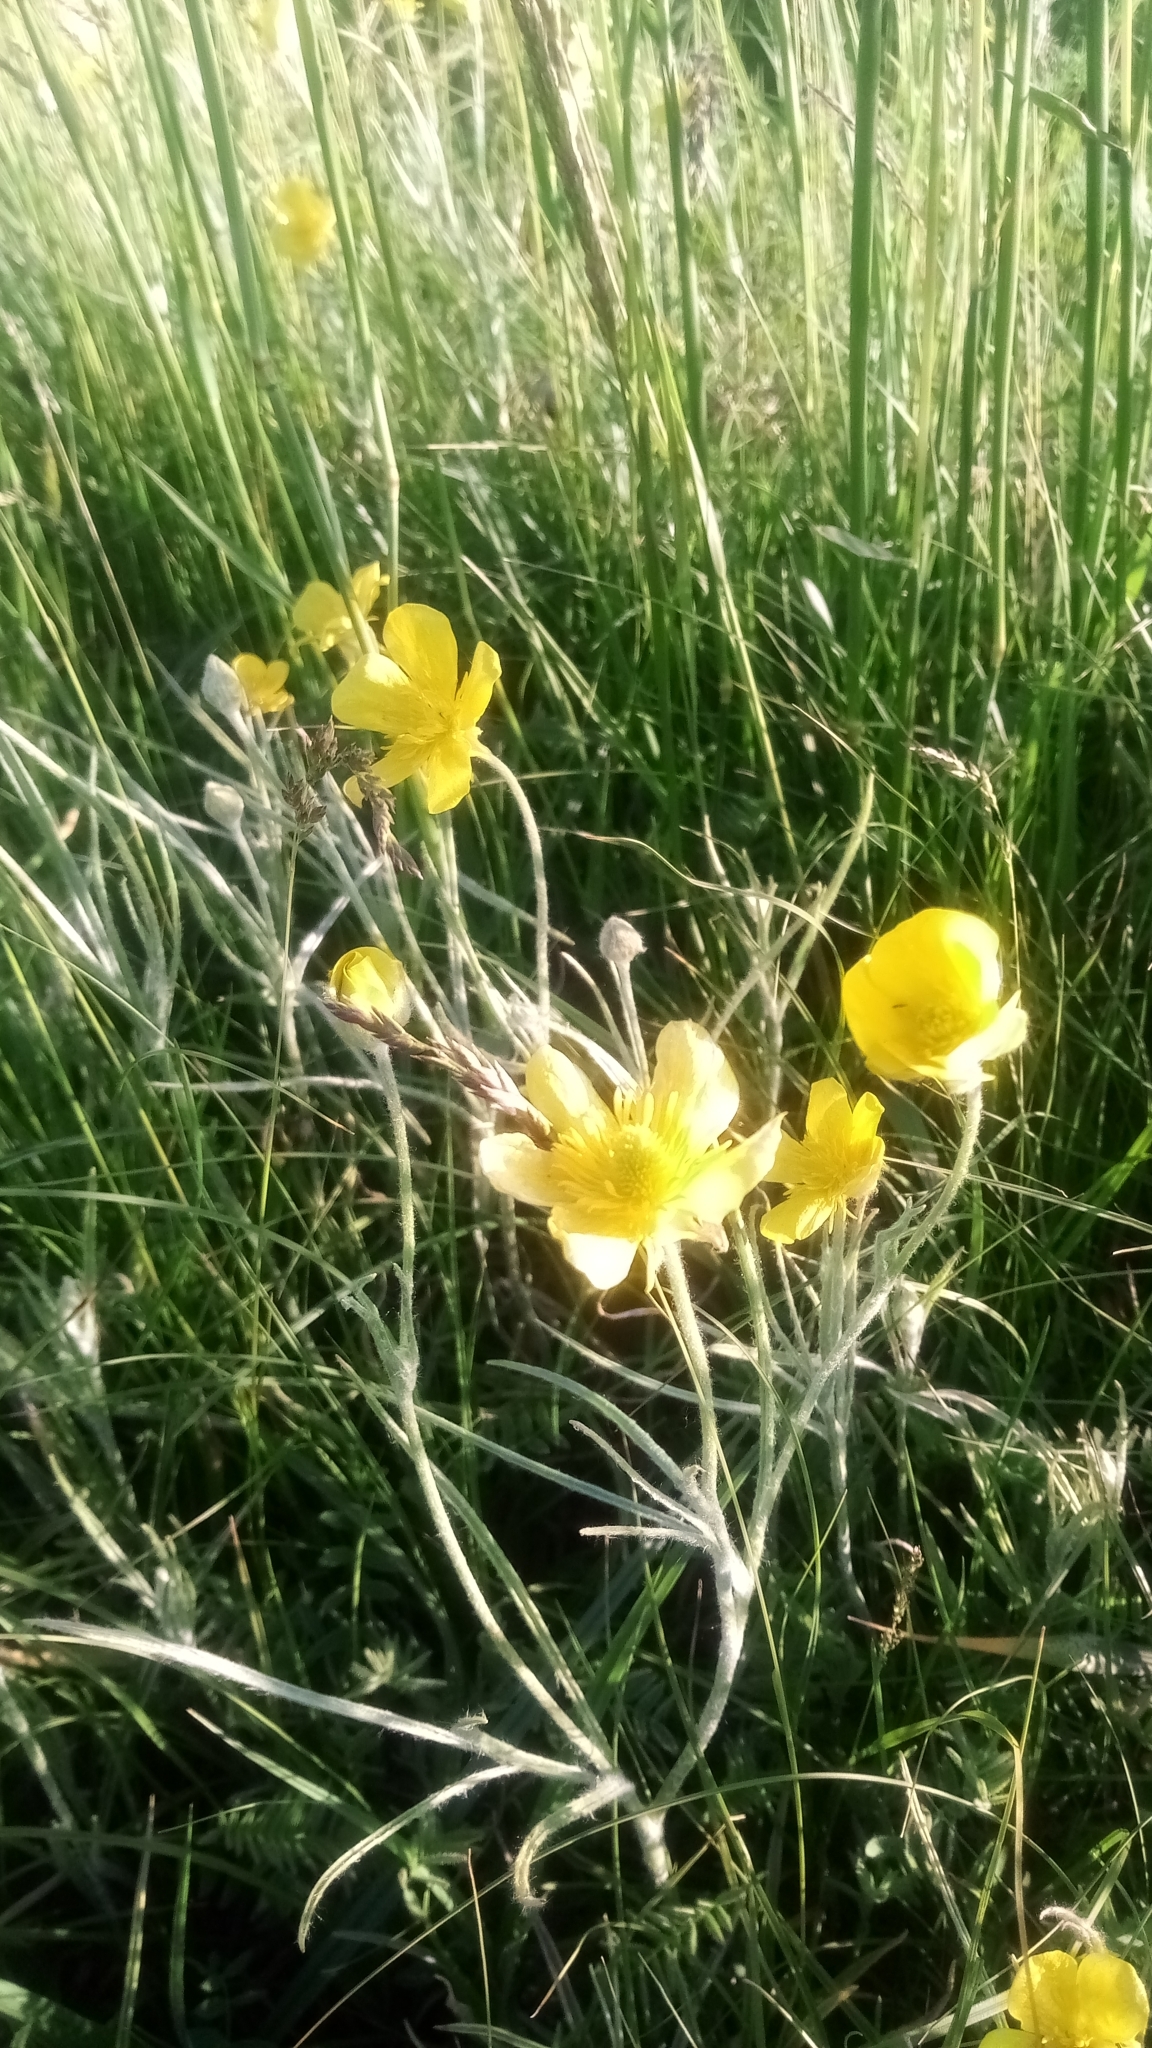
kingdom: Plantae
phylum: Tracheophyta
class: Magnoliopsida
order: Ranunculales
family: Ranunculaceae
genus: Ranunculus
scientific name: Ranunculus illyricus
